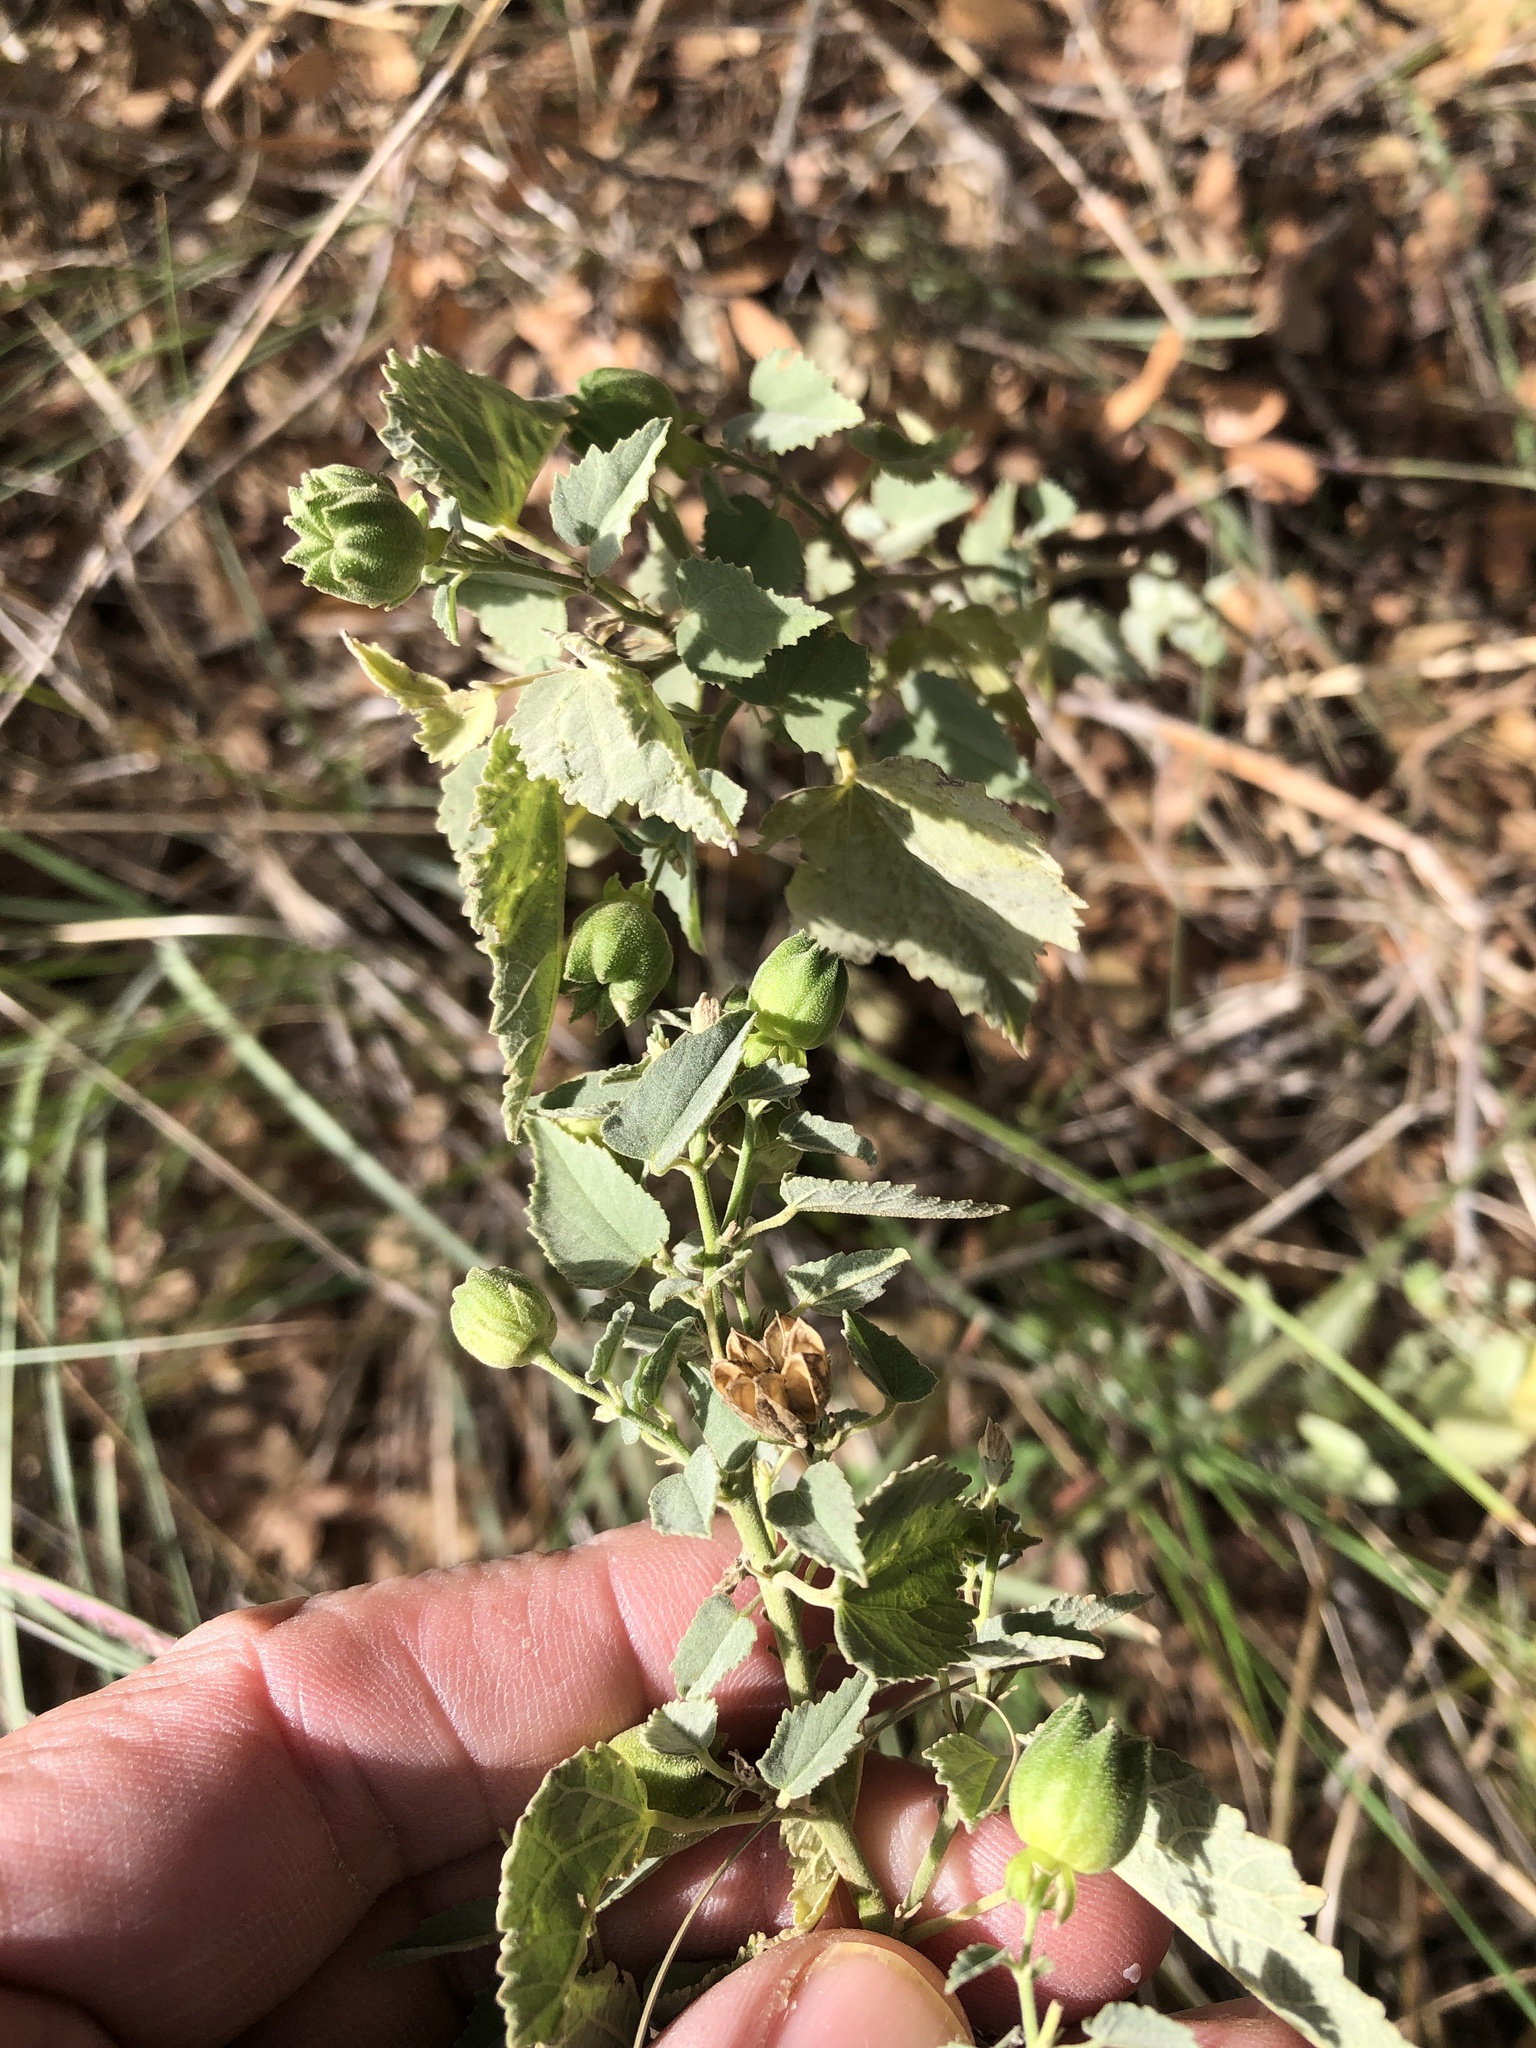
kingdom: Plantae
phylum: Tracheophyta
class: Magnoliopsida
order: Malvales
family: Malvaceae
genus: Abutilon
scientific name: Abutilon fruticosum
